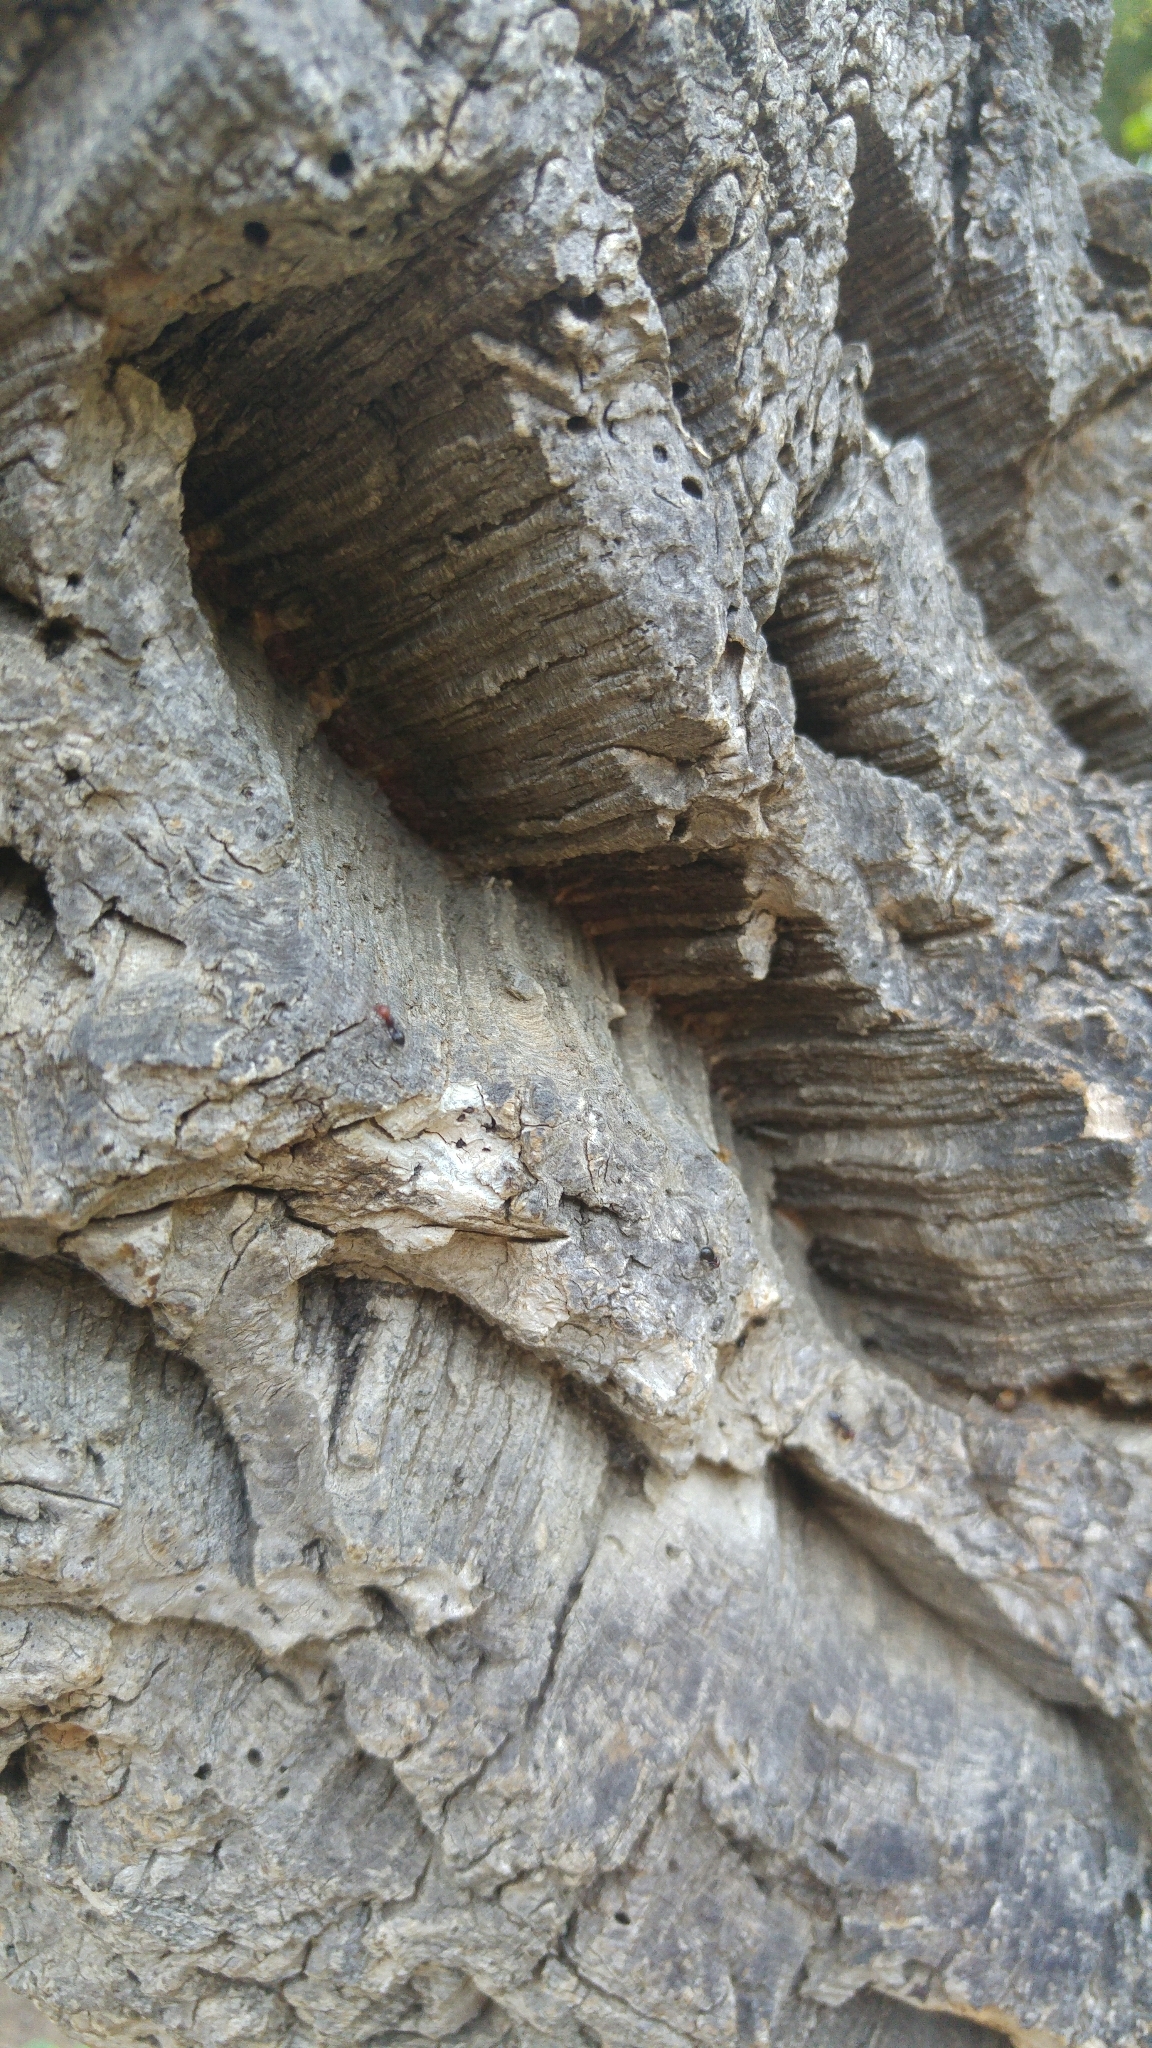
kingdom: Plantae
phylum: Tracheophyta
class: Magnoliopsida
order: Fagales
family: Fagaceae
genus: Quercus
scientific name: Quercus suber
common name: Cork oak
